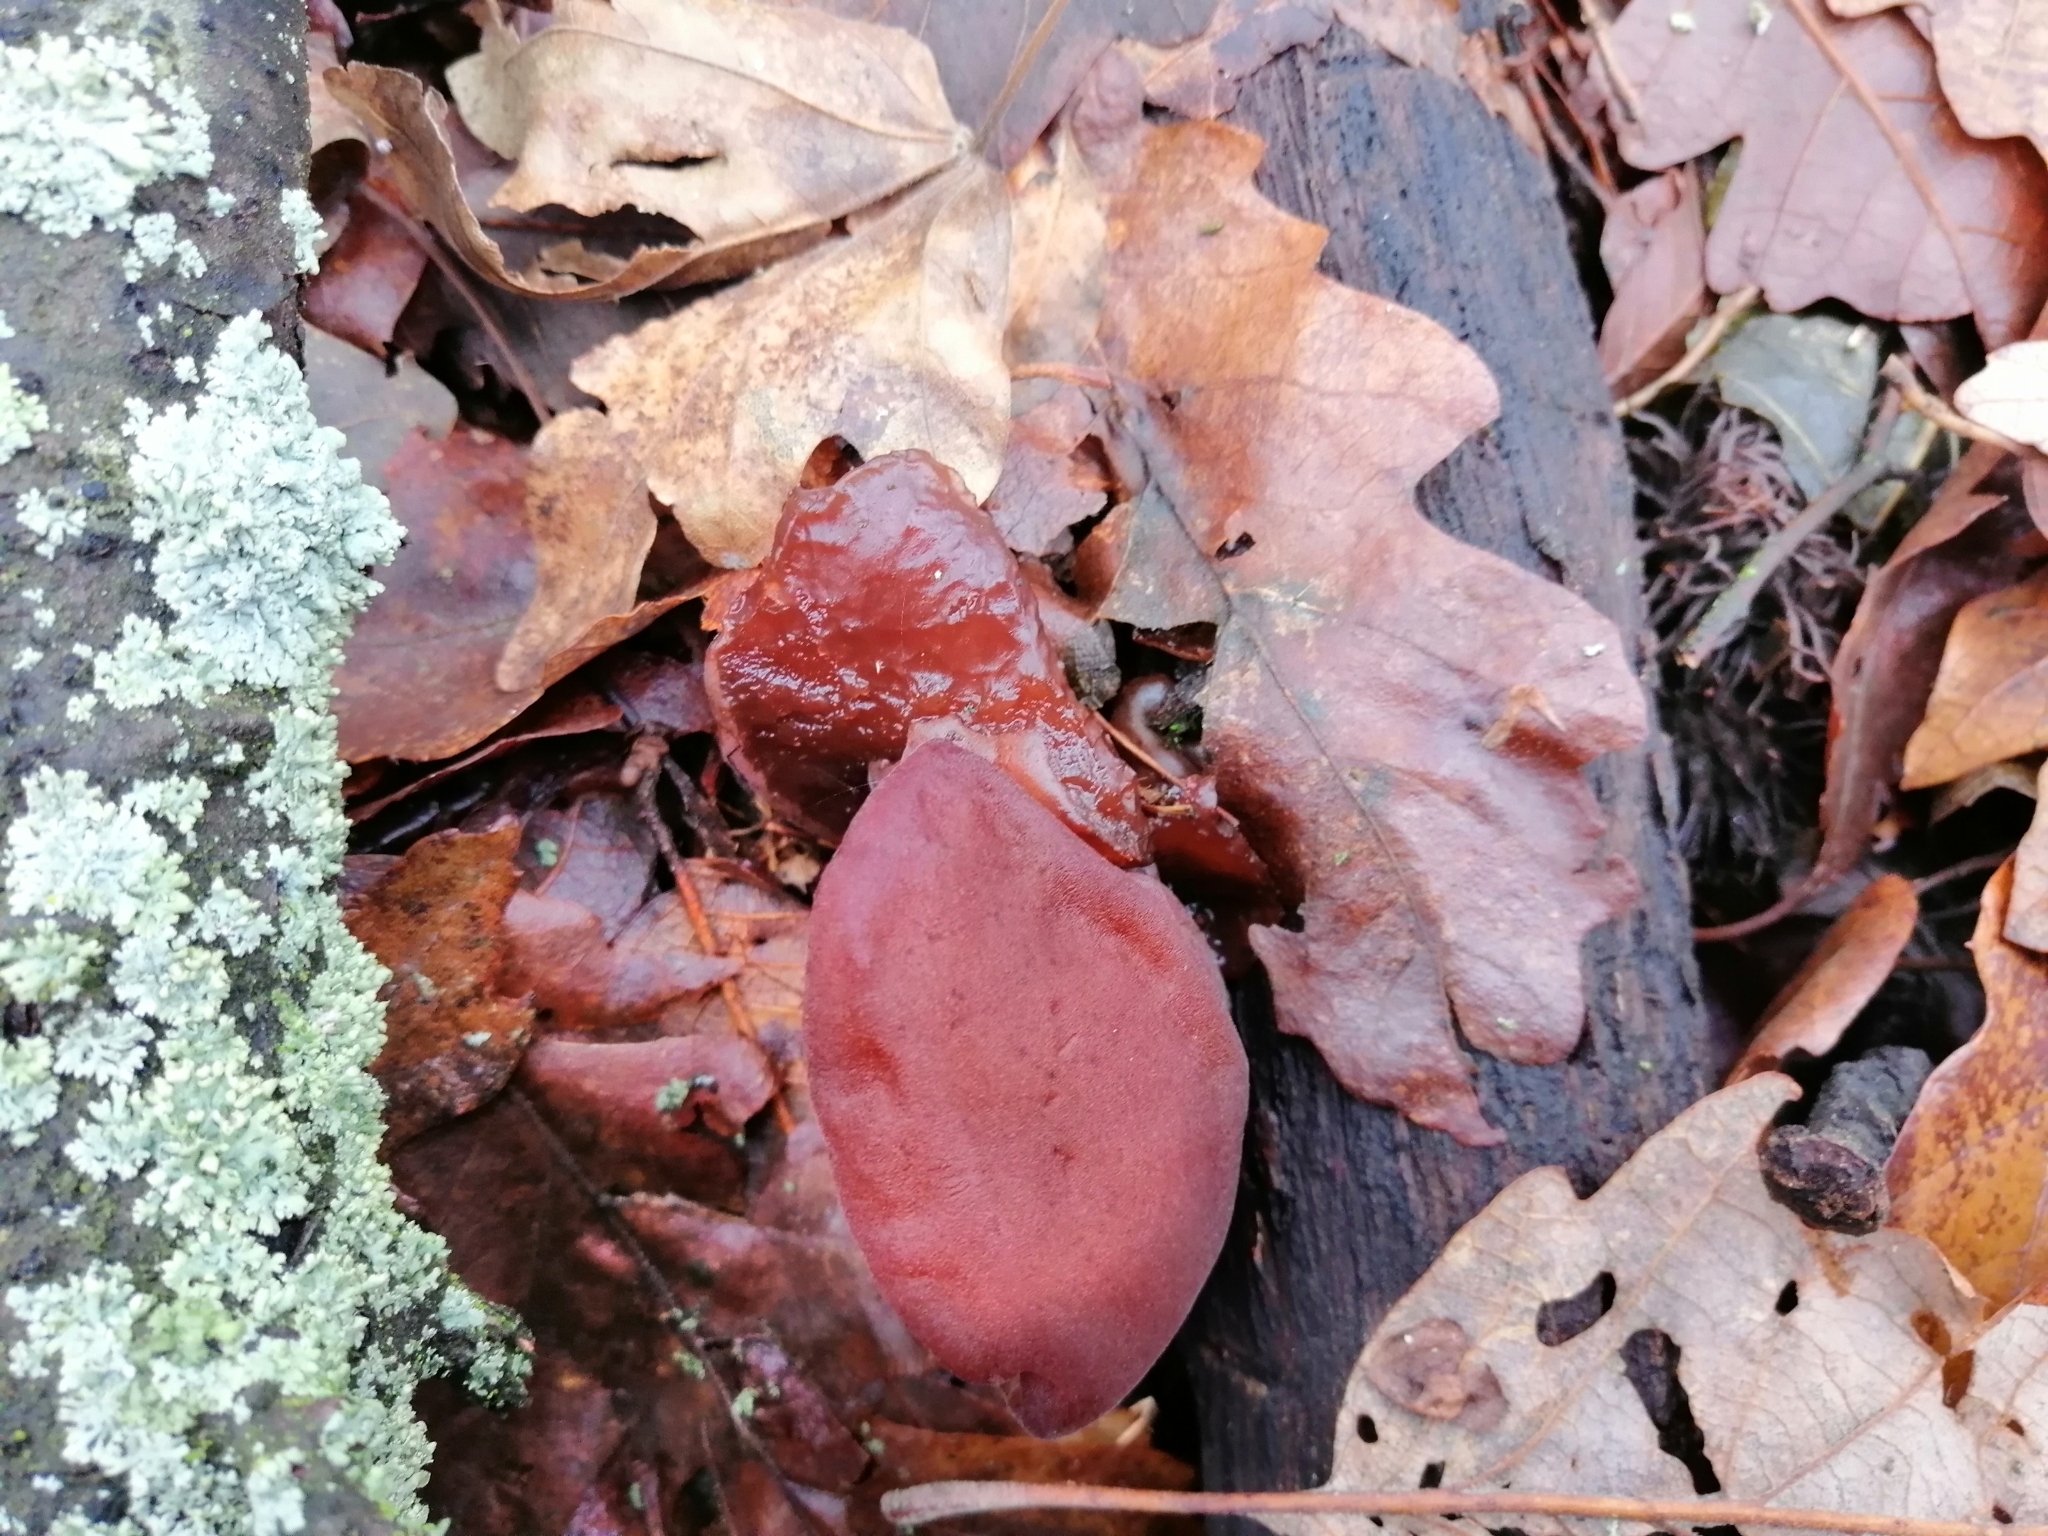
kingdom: Fungi
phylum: Basidiomycota
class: Agaricomycetes
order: Auriculariales
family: Auriculariaceae
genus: Auricularia
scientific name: Auricularia auricula-judae
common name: Jelly ear
